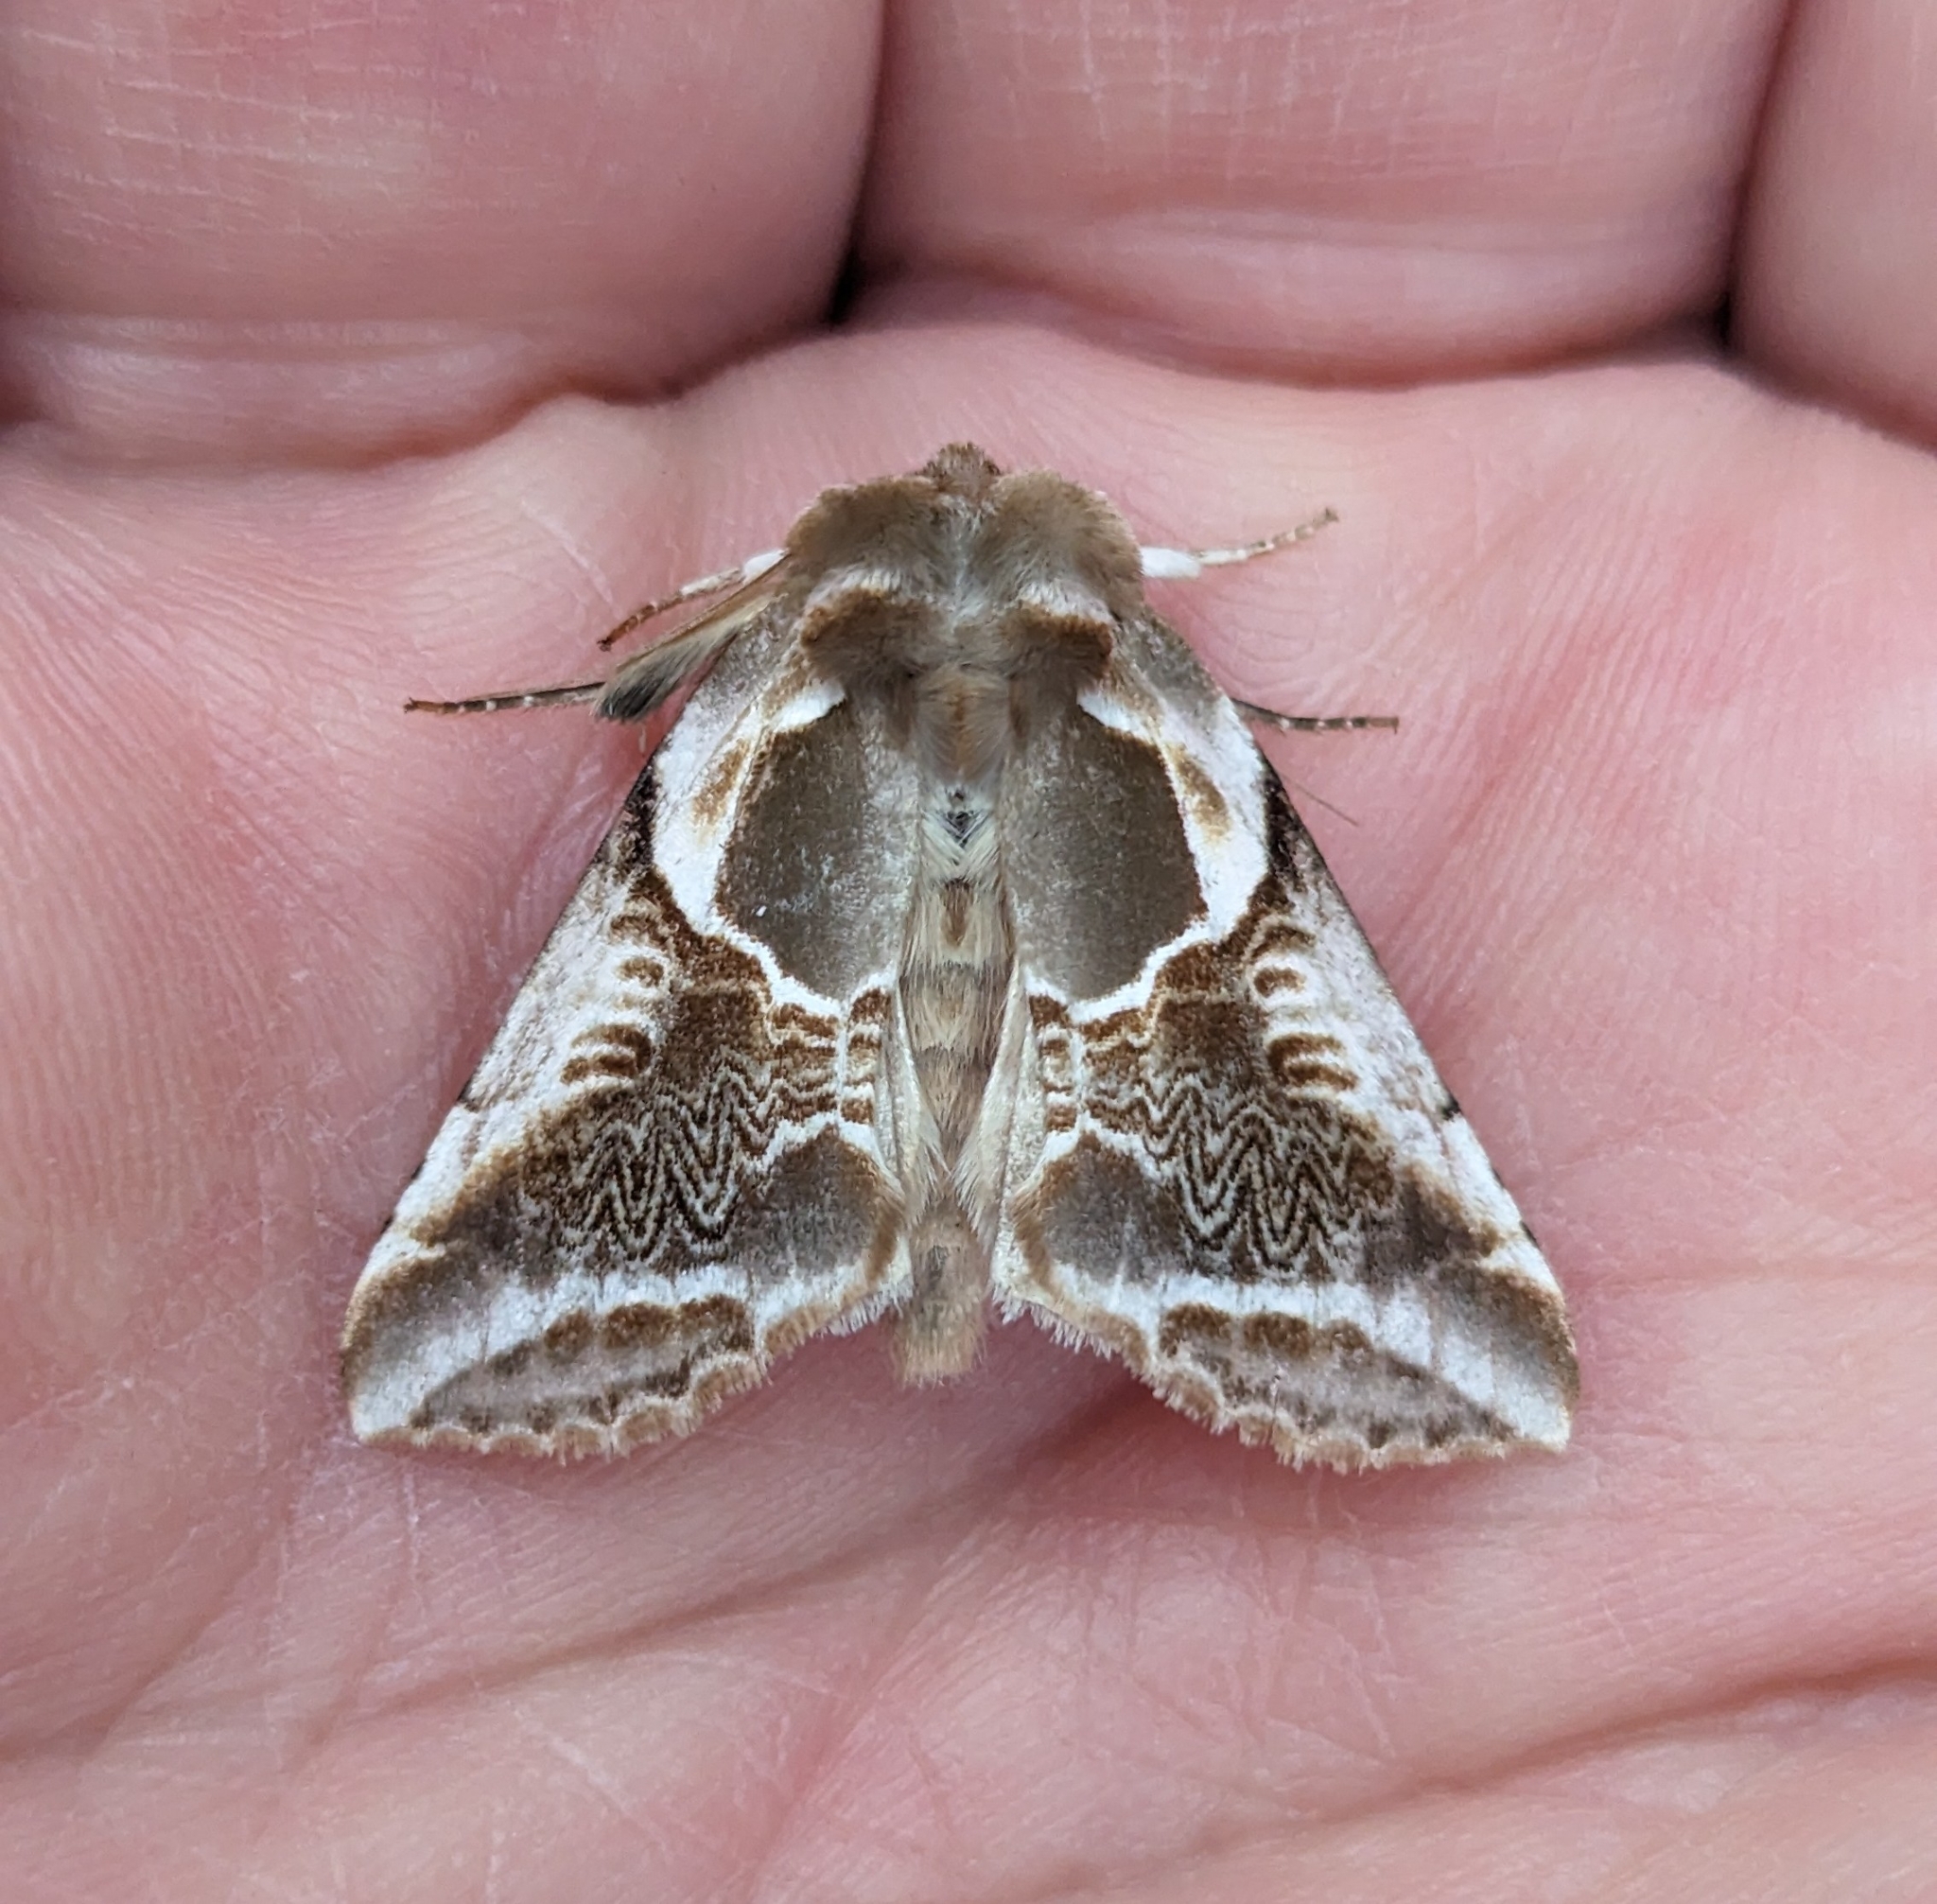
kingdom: Animalia
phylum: Arthropoda
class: Insecta
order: Lepidoptera
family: Drepanidae
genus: Habrosyne
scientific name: Habrosyne scripta
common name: Lettered habrosyne moth
